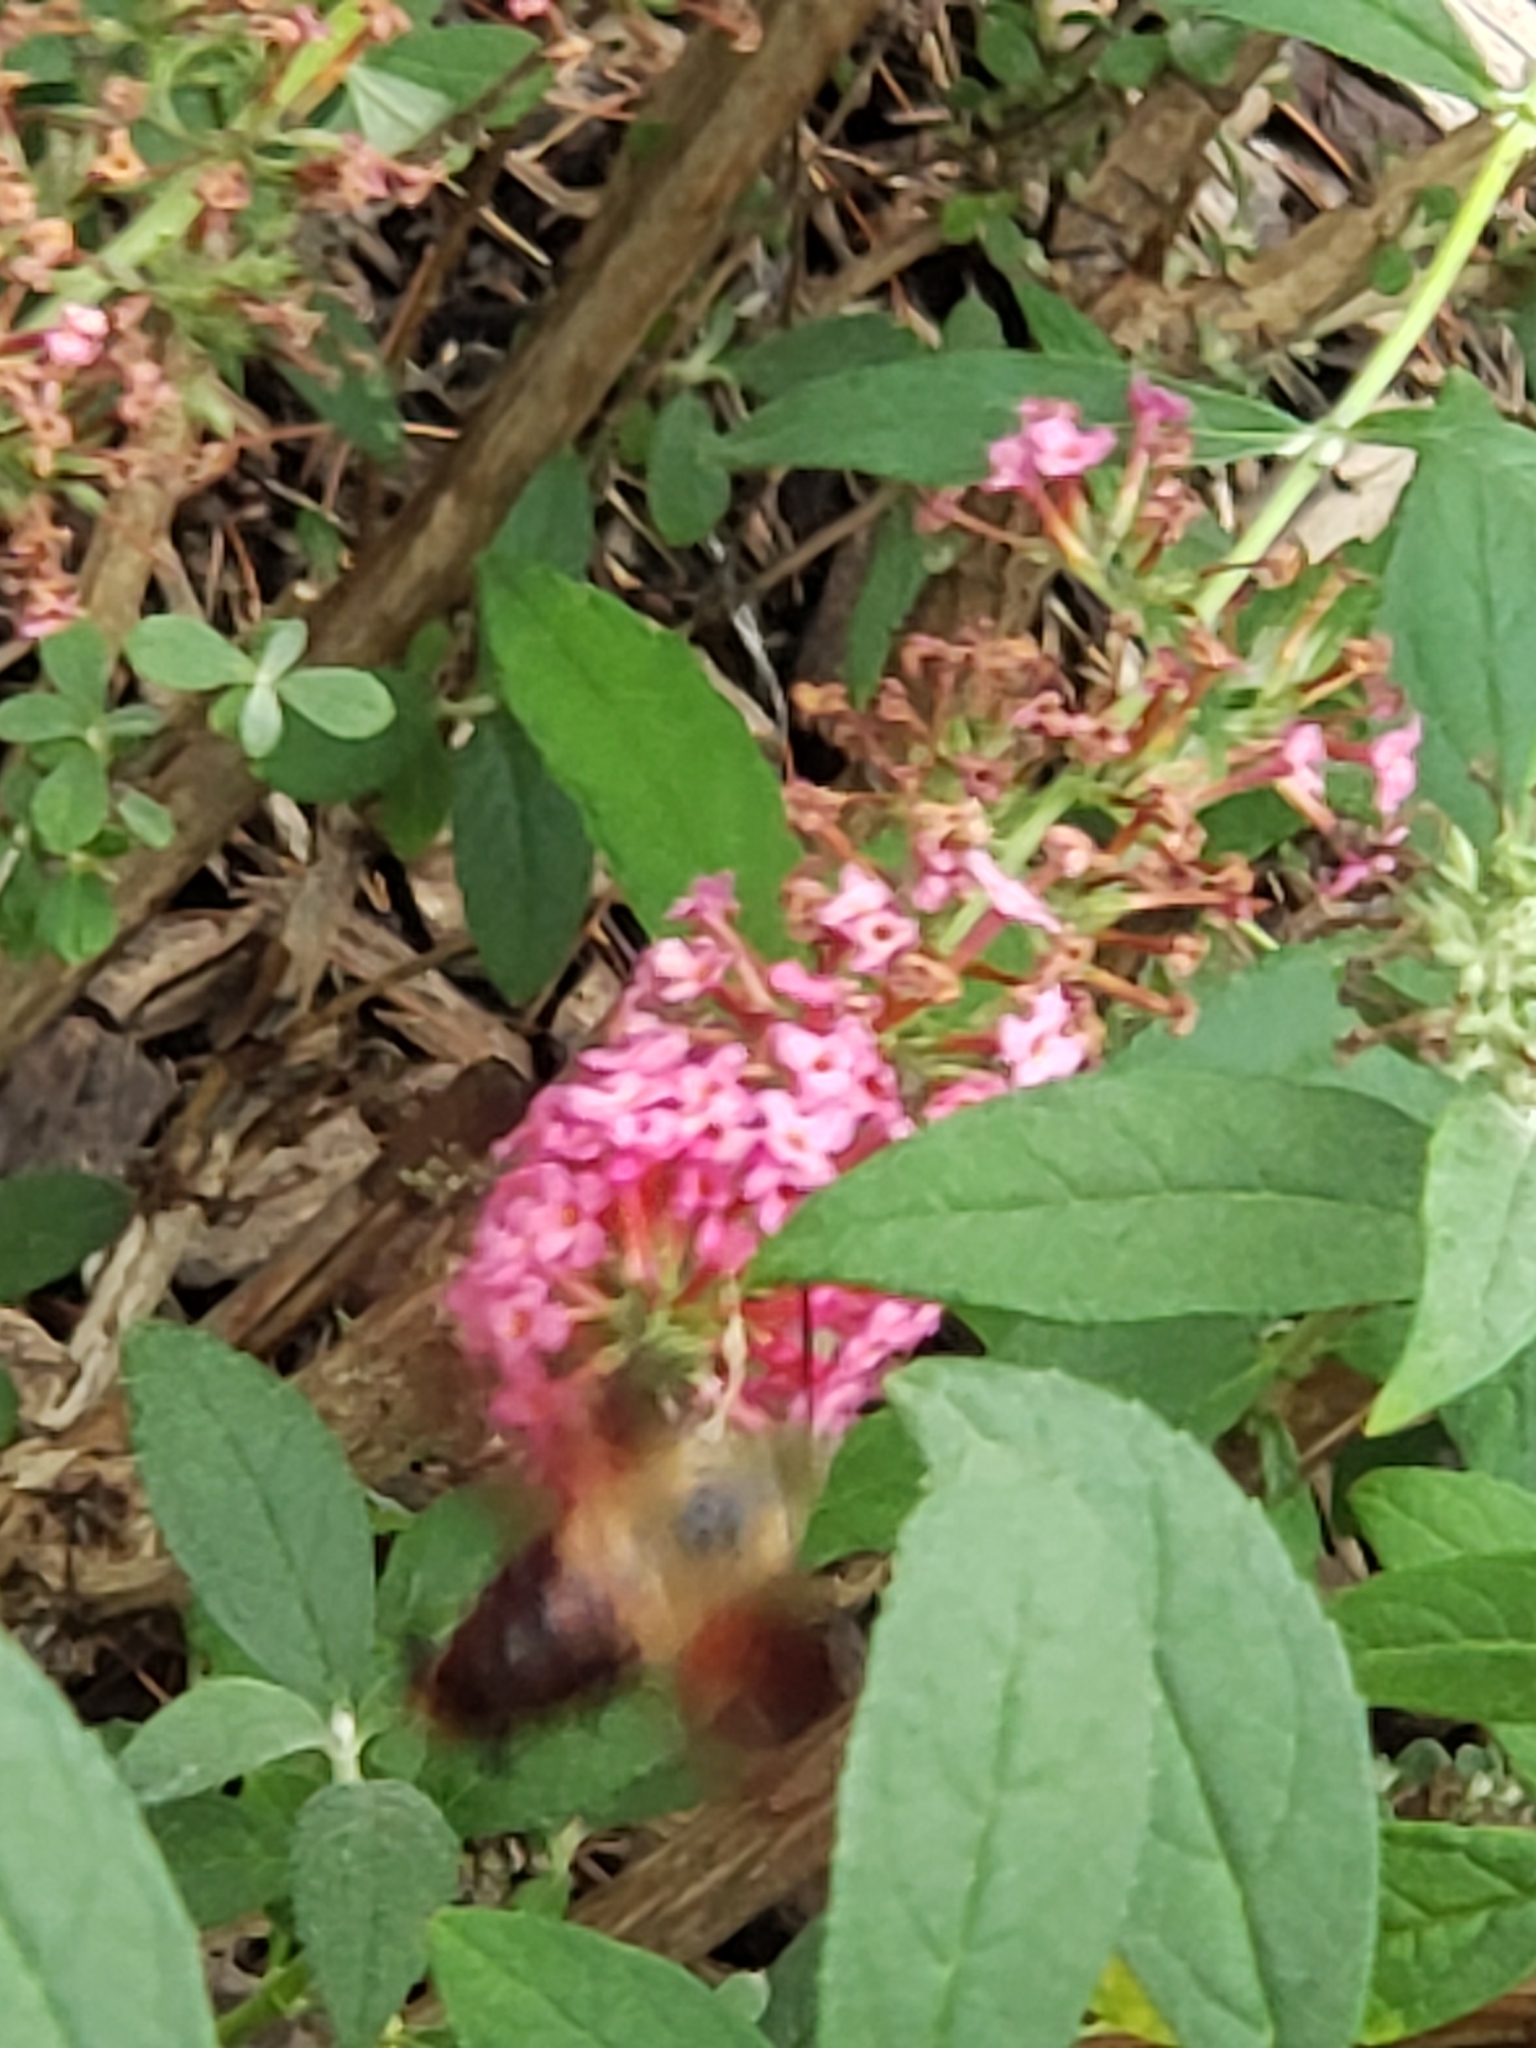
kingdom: Animalia
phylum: Arthropoda
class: Insecta
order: Lepidoptera
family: Sphingidae
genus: Hemaris
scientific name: Hemaris thysbe
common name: Common clear-wing
